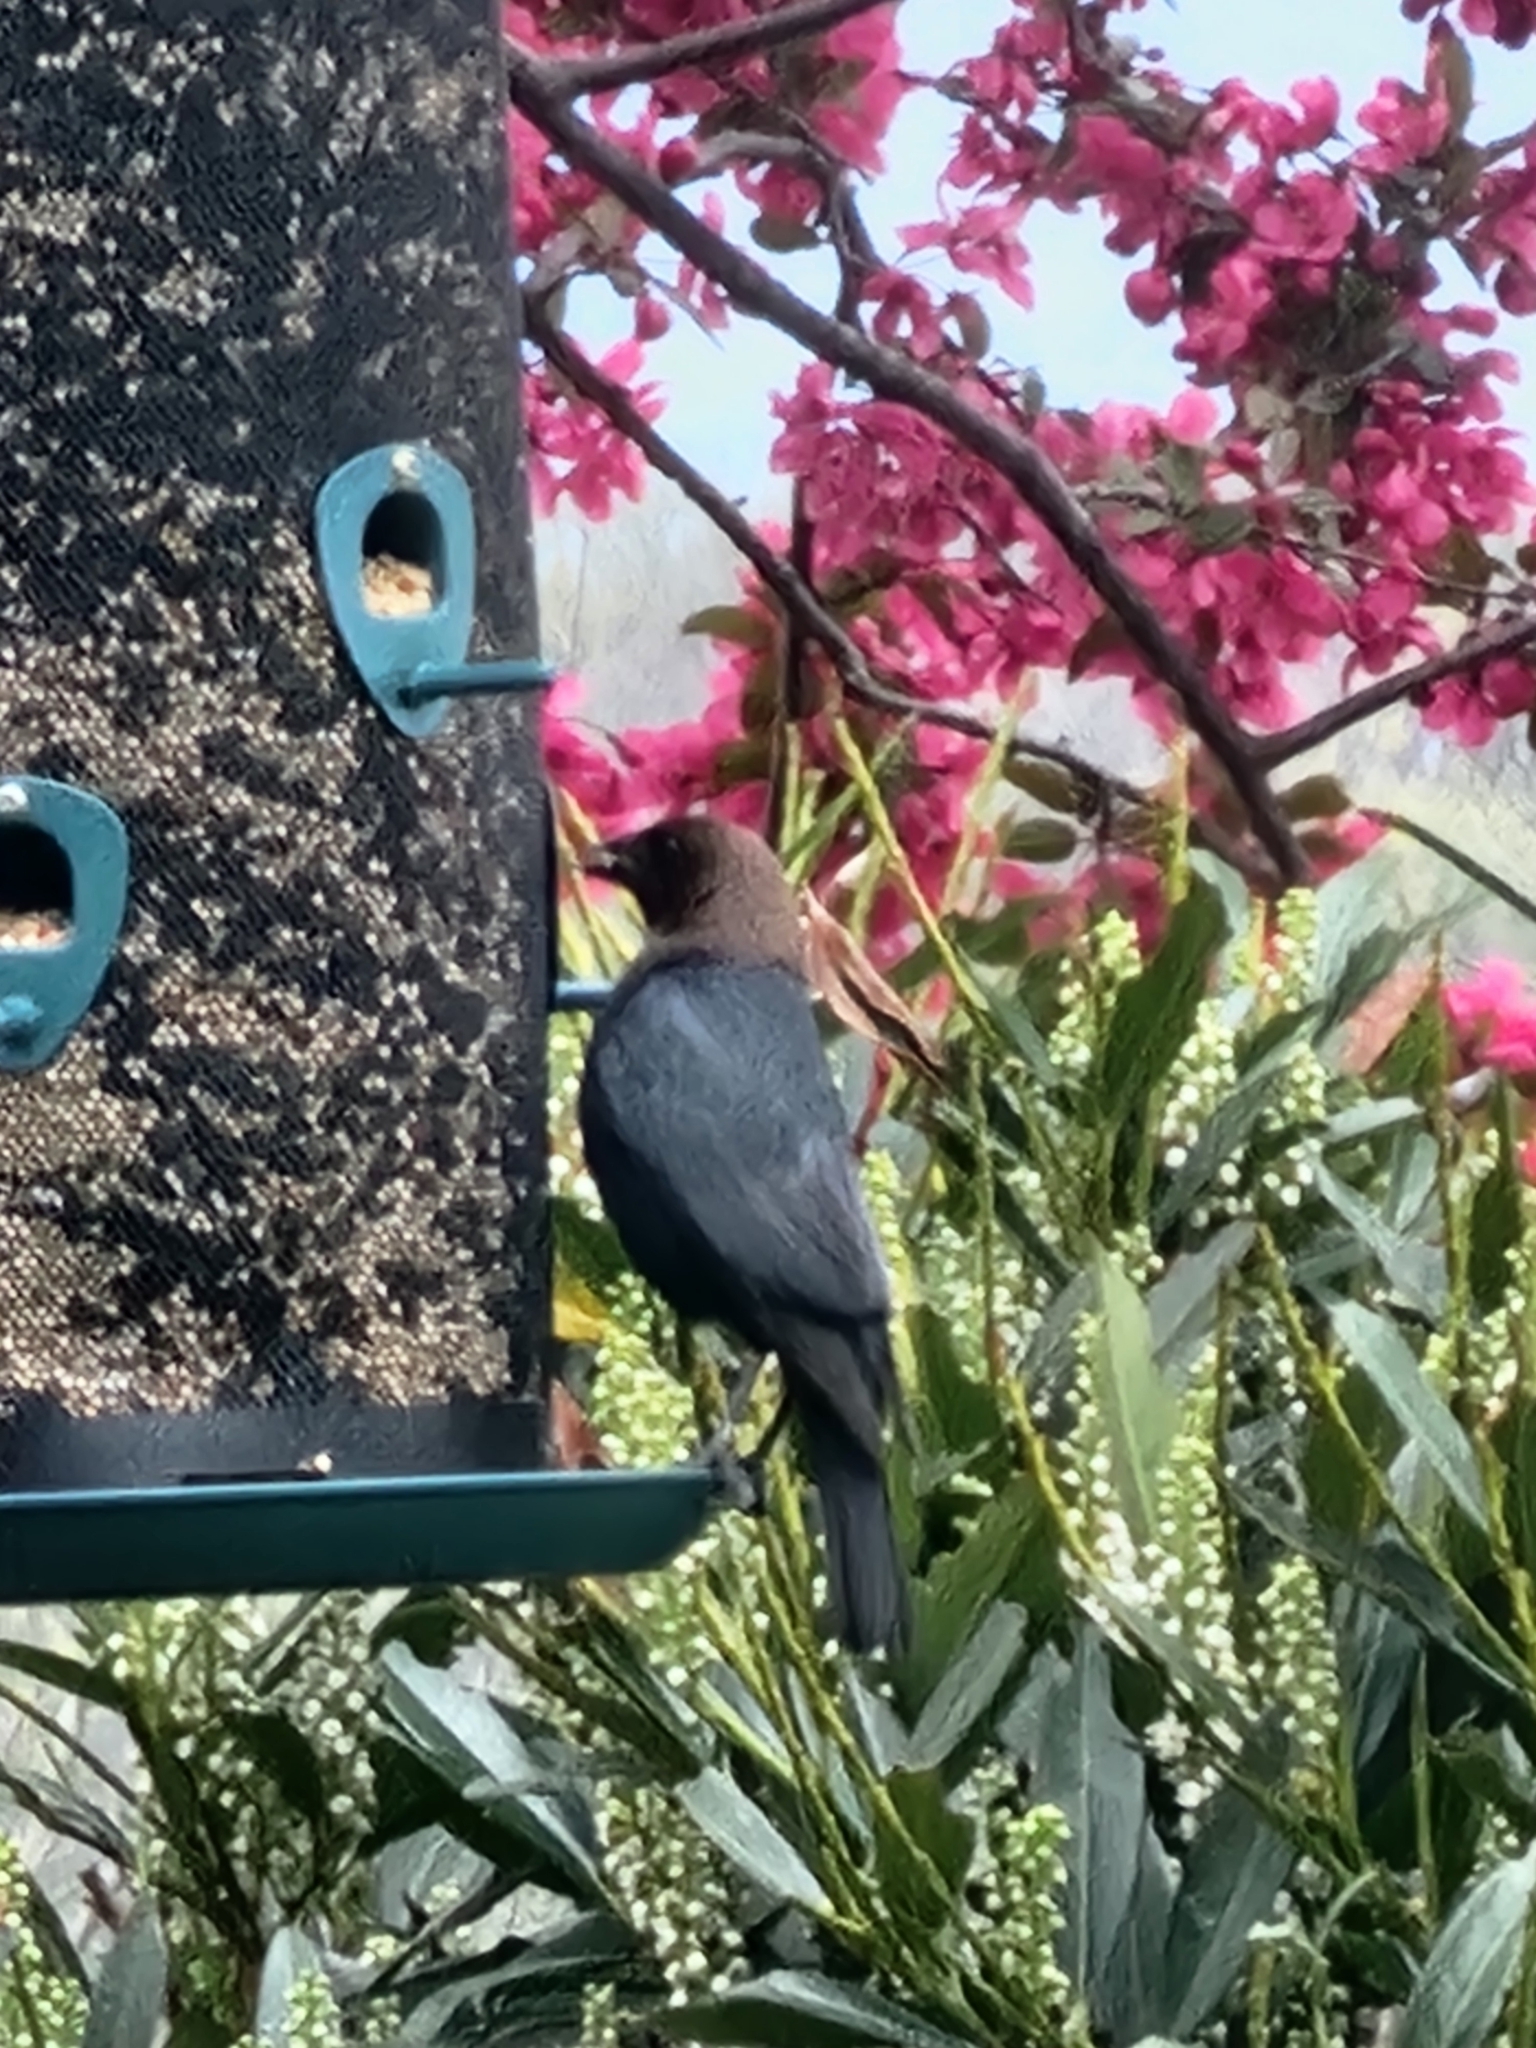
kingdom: Animalia
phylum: Chordata
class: Aves
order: Passeriformes
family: Icteridae
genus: Molothrus
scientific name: Molothrus ater
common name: Brown-headed cowbird
